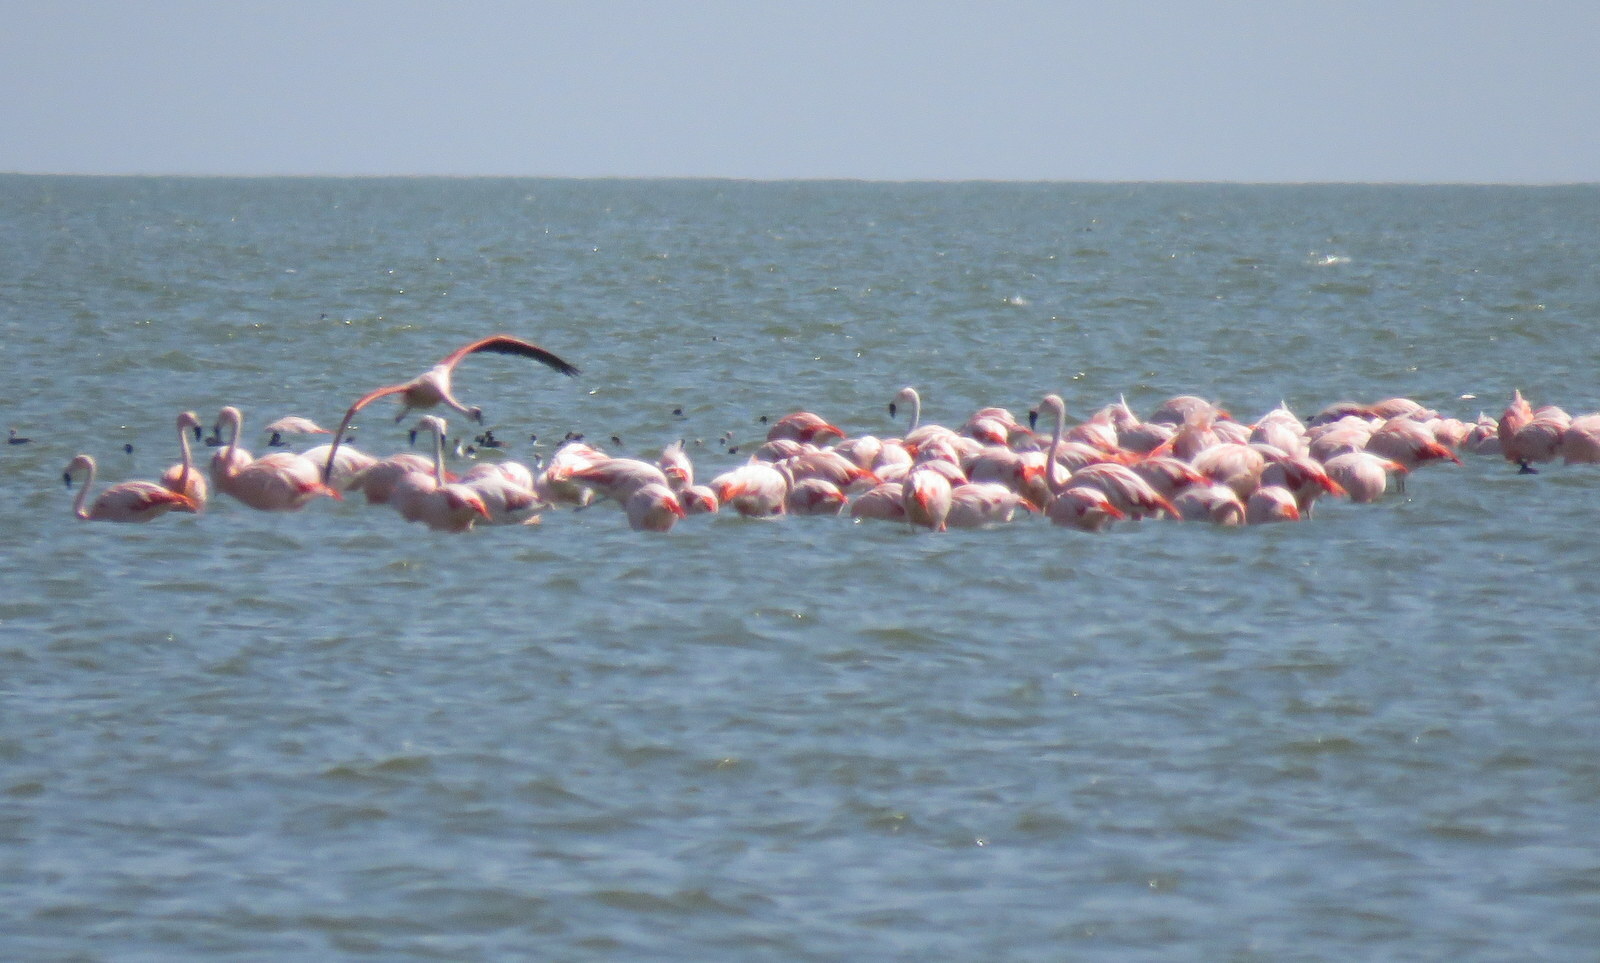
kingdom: Animalia
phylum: Chordata
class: Aves
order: Phoenicopteriformes
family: Phoenicopteridae
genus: Phoenicopterus
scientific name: Phoenicopterus chilensis
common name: Chilean flamingo
